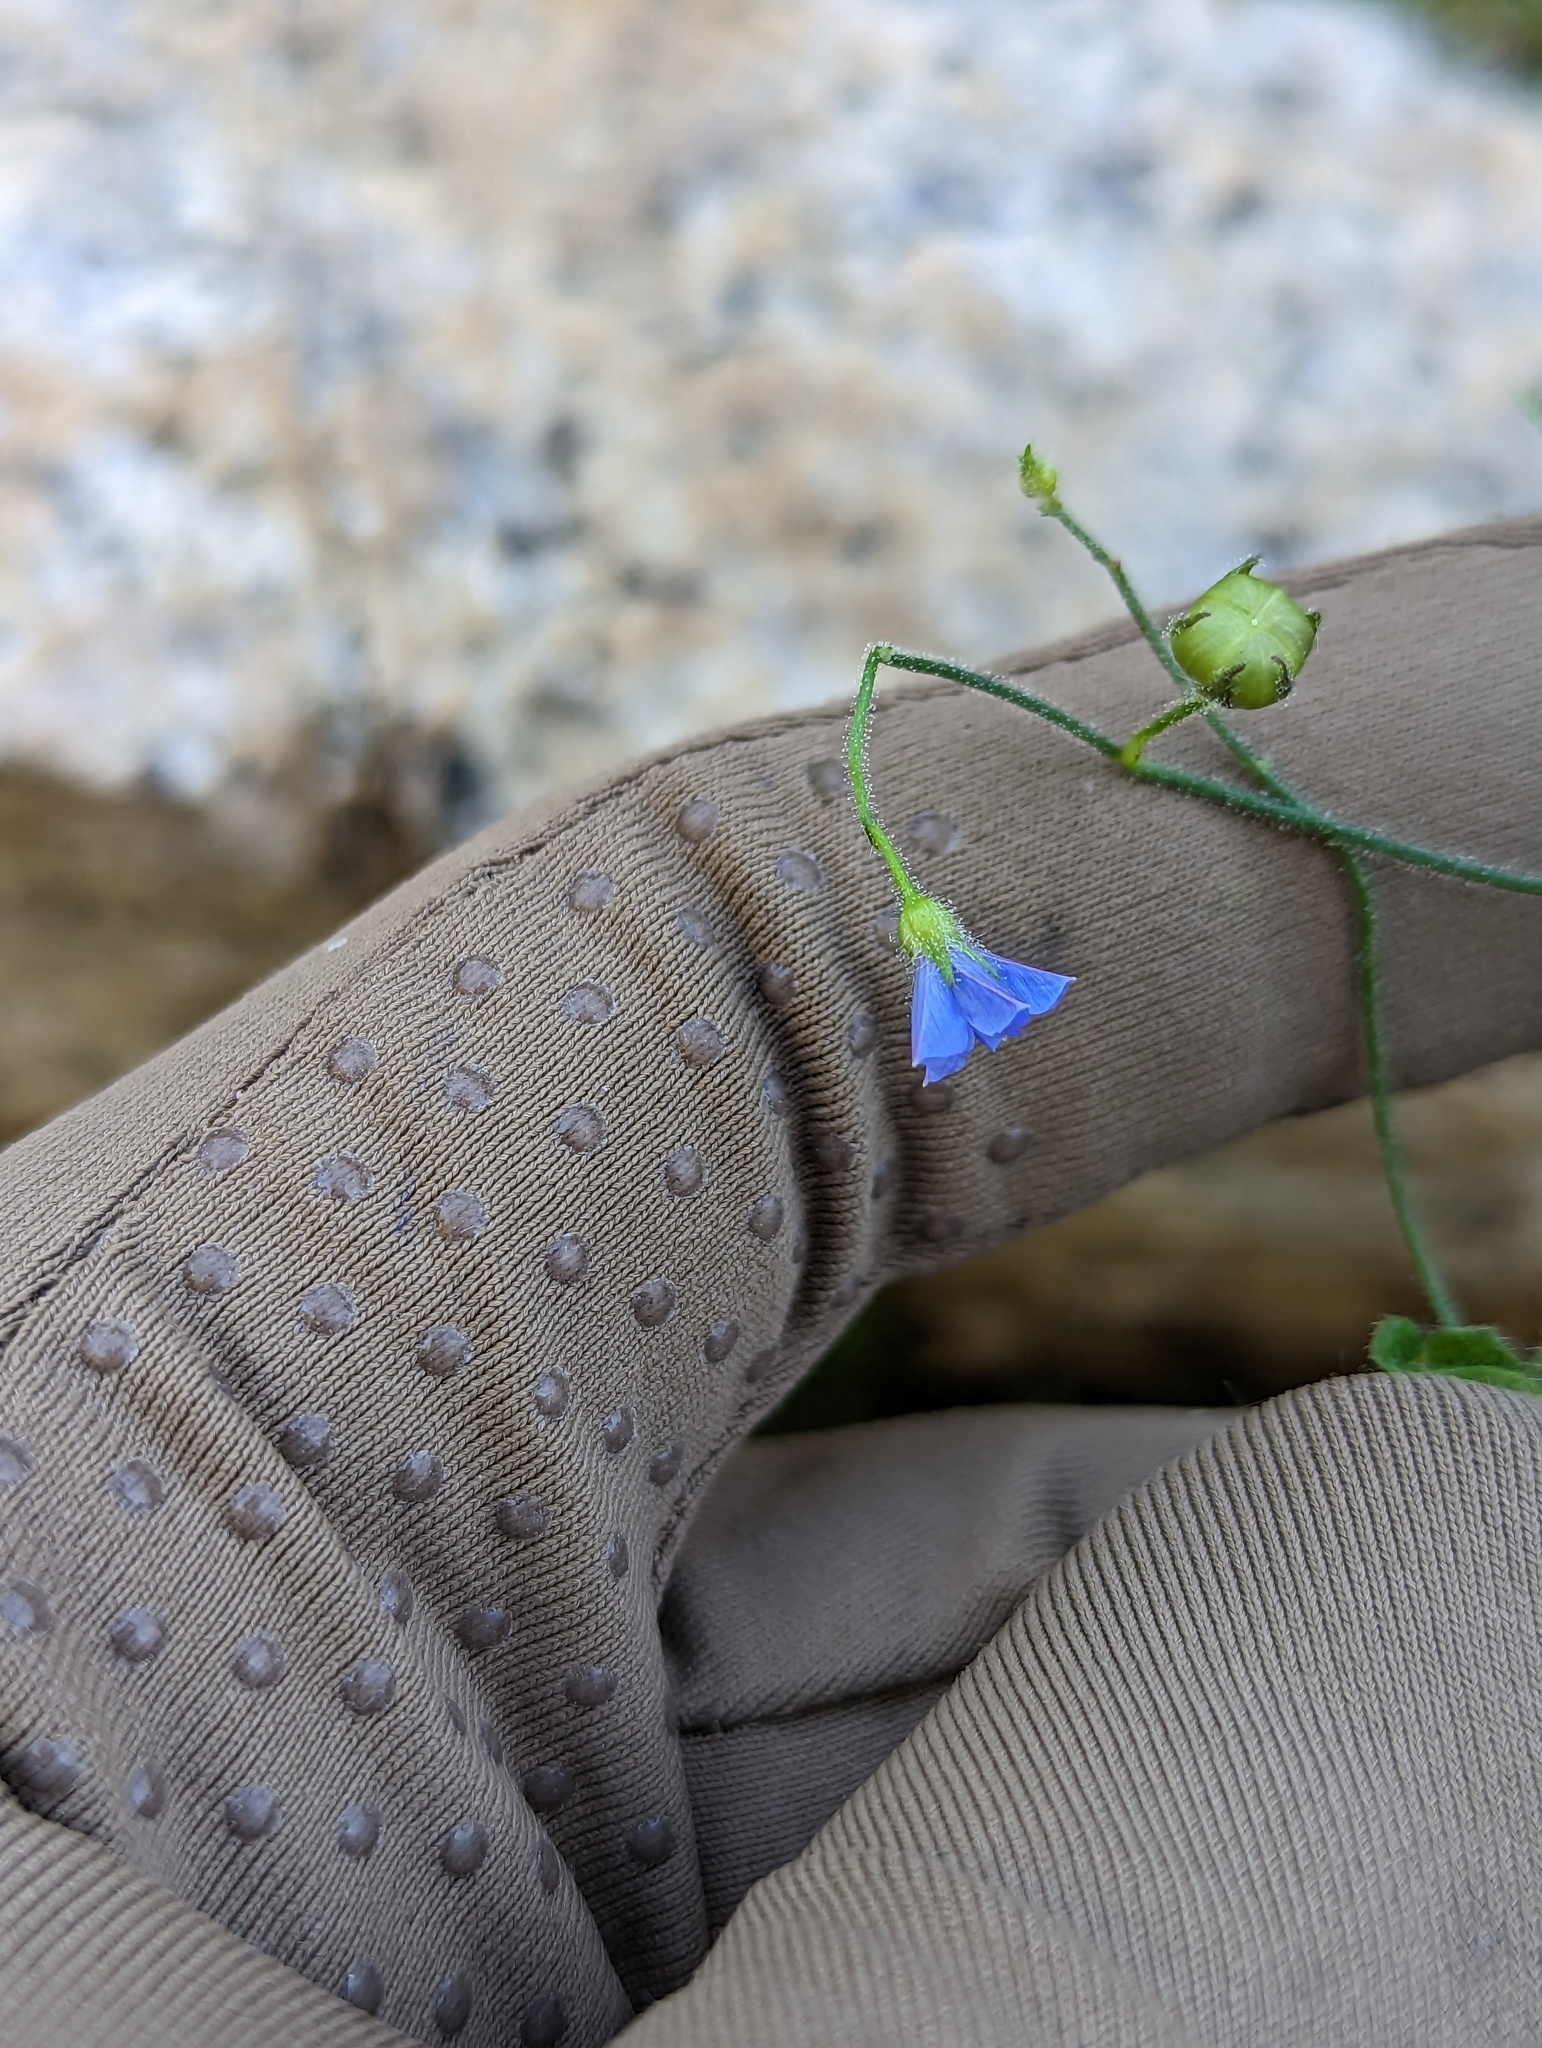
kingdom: Plantae
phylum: Tracheophyta
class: Magnoliopsida
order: Solanales
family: Convolvulaceae
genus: Jacquemontia
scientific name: Jacquemontia evolvuloides
